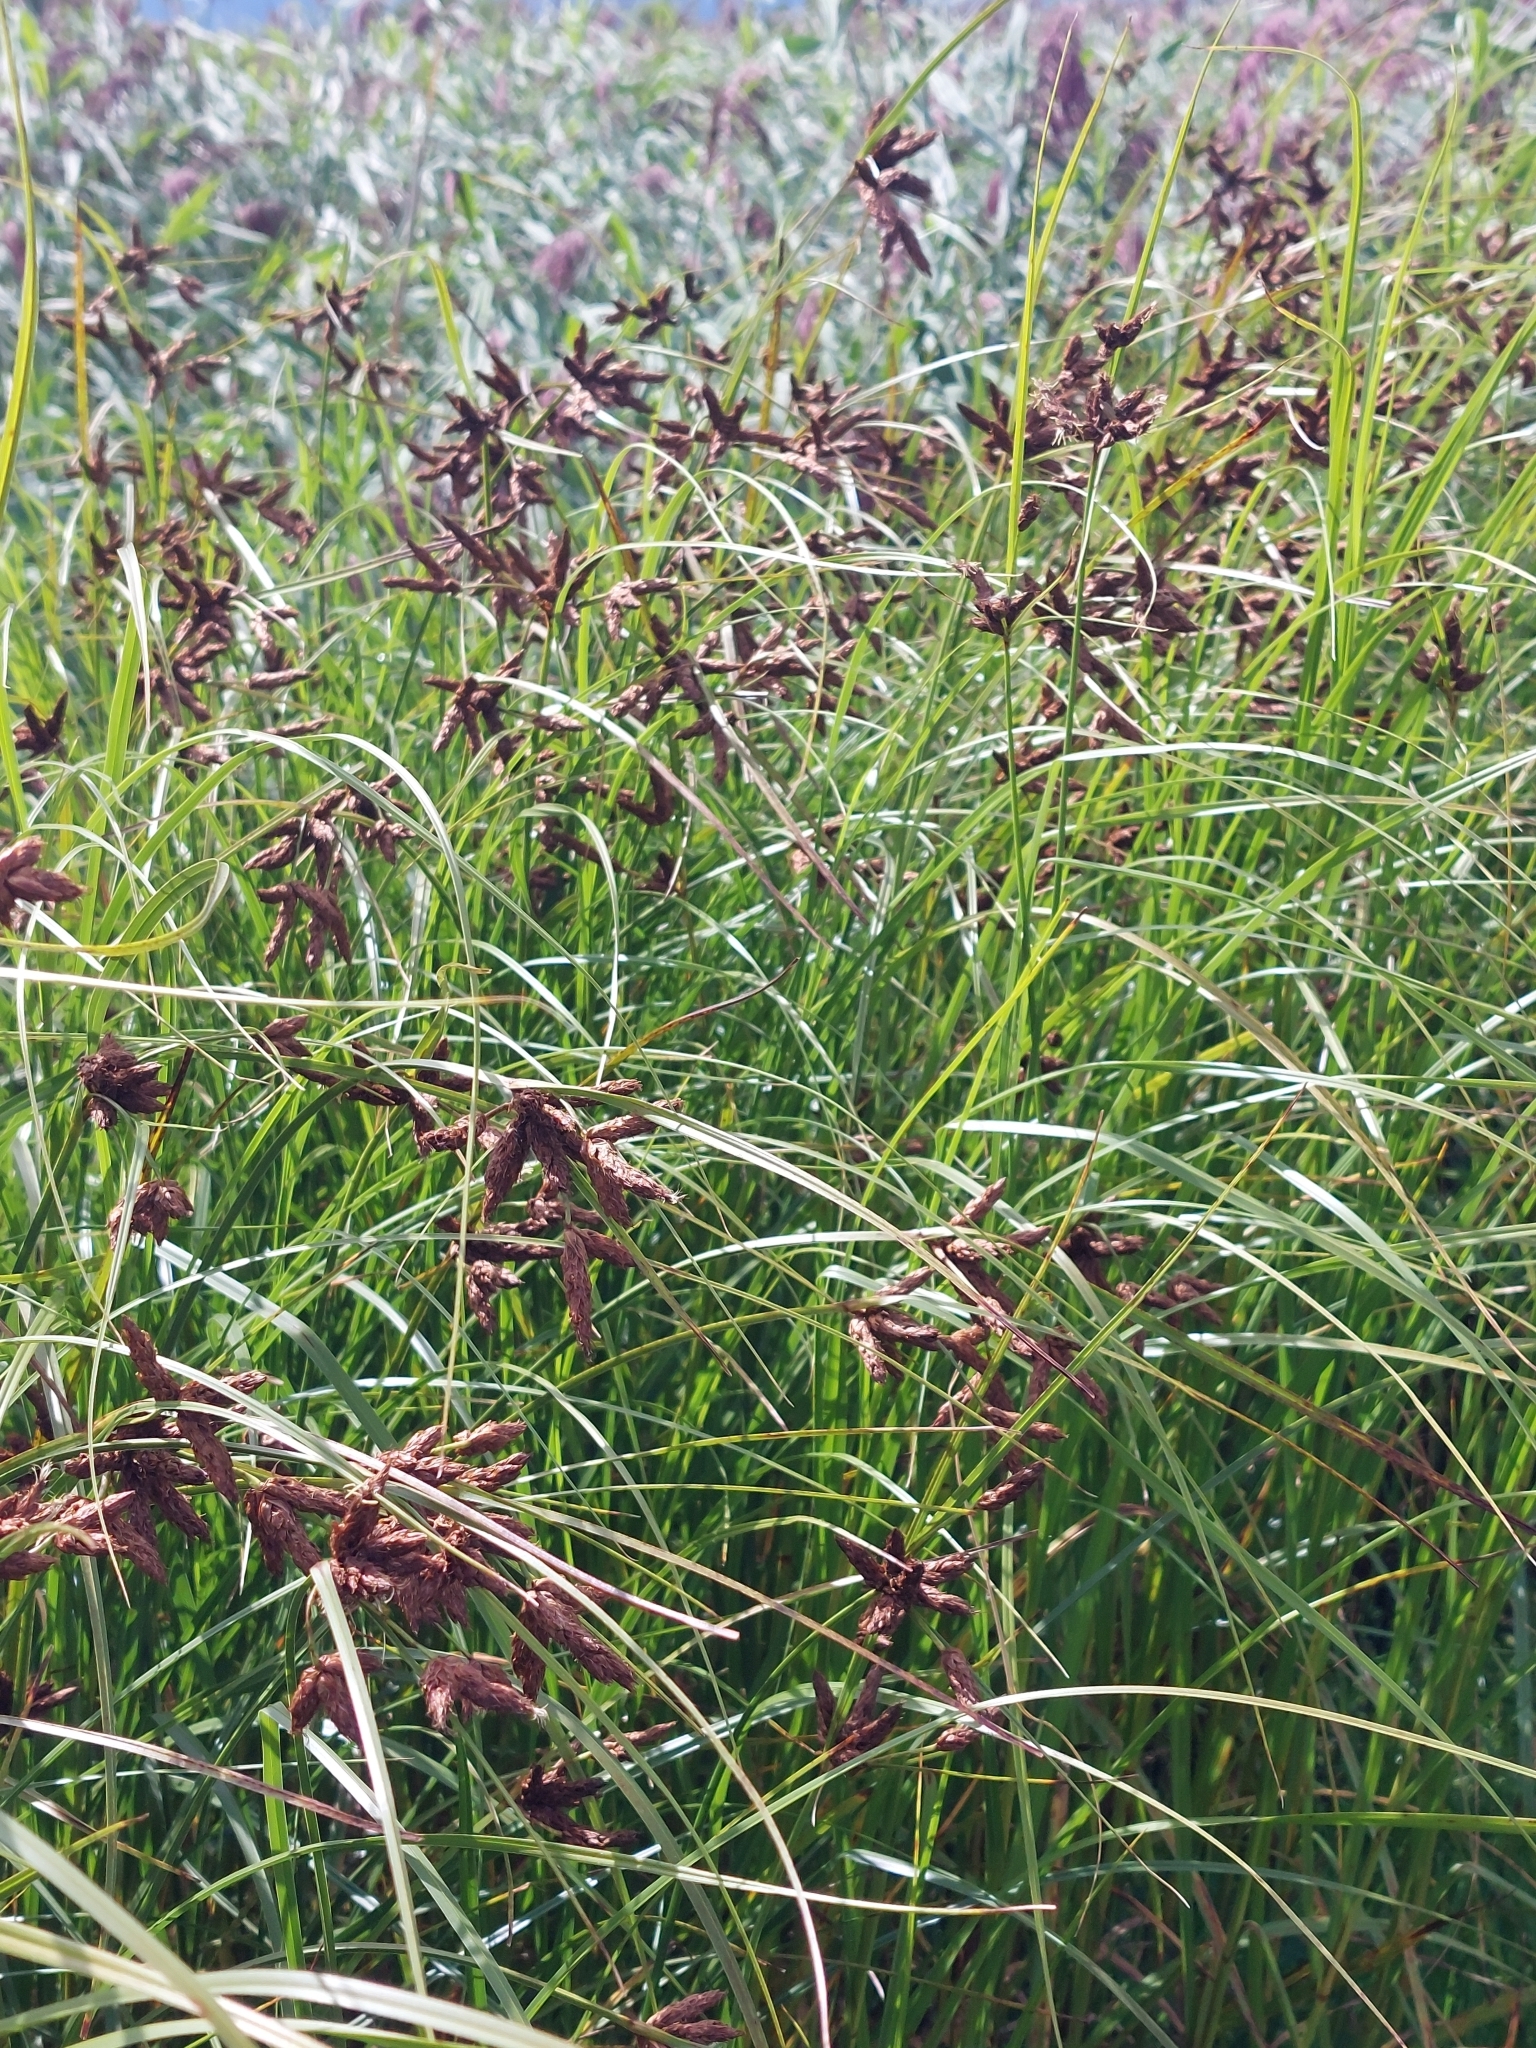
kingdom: Plantae
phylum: Tracheophyta
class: Liliopsida
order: Poales
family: Cyperaceae
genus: Bolboschoenus
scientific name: Bolboschoenus maritimus
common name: Sea club-rush
